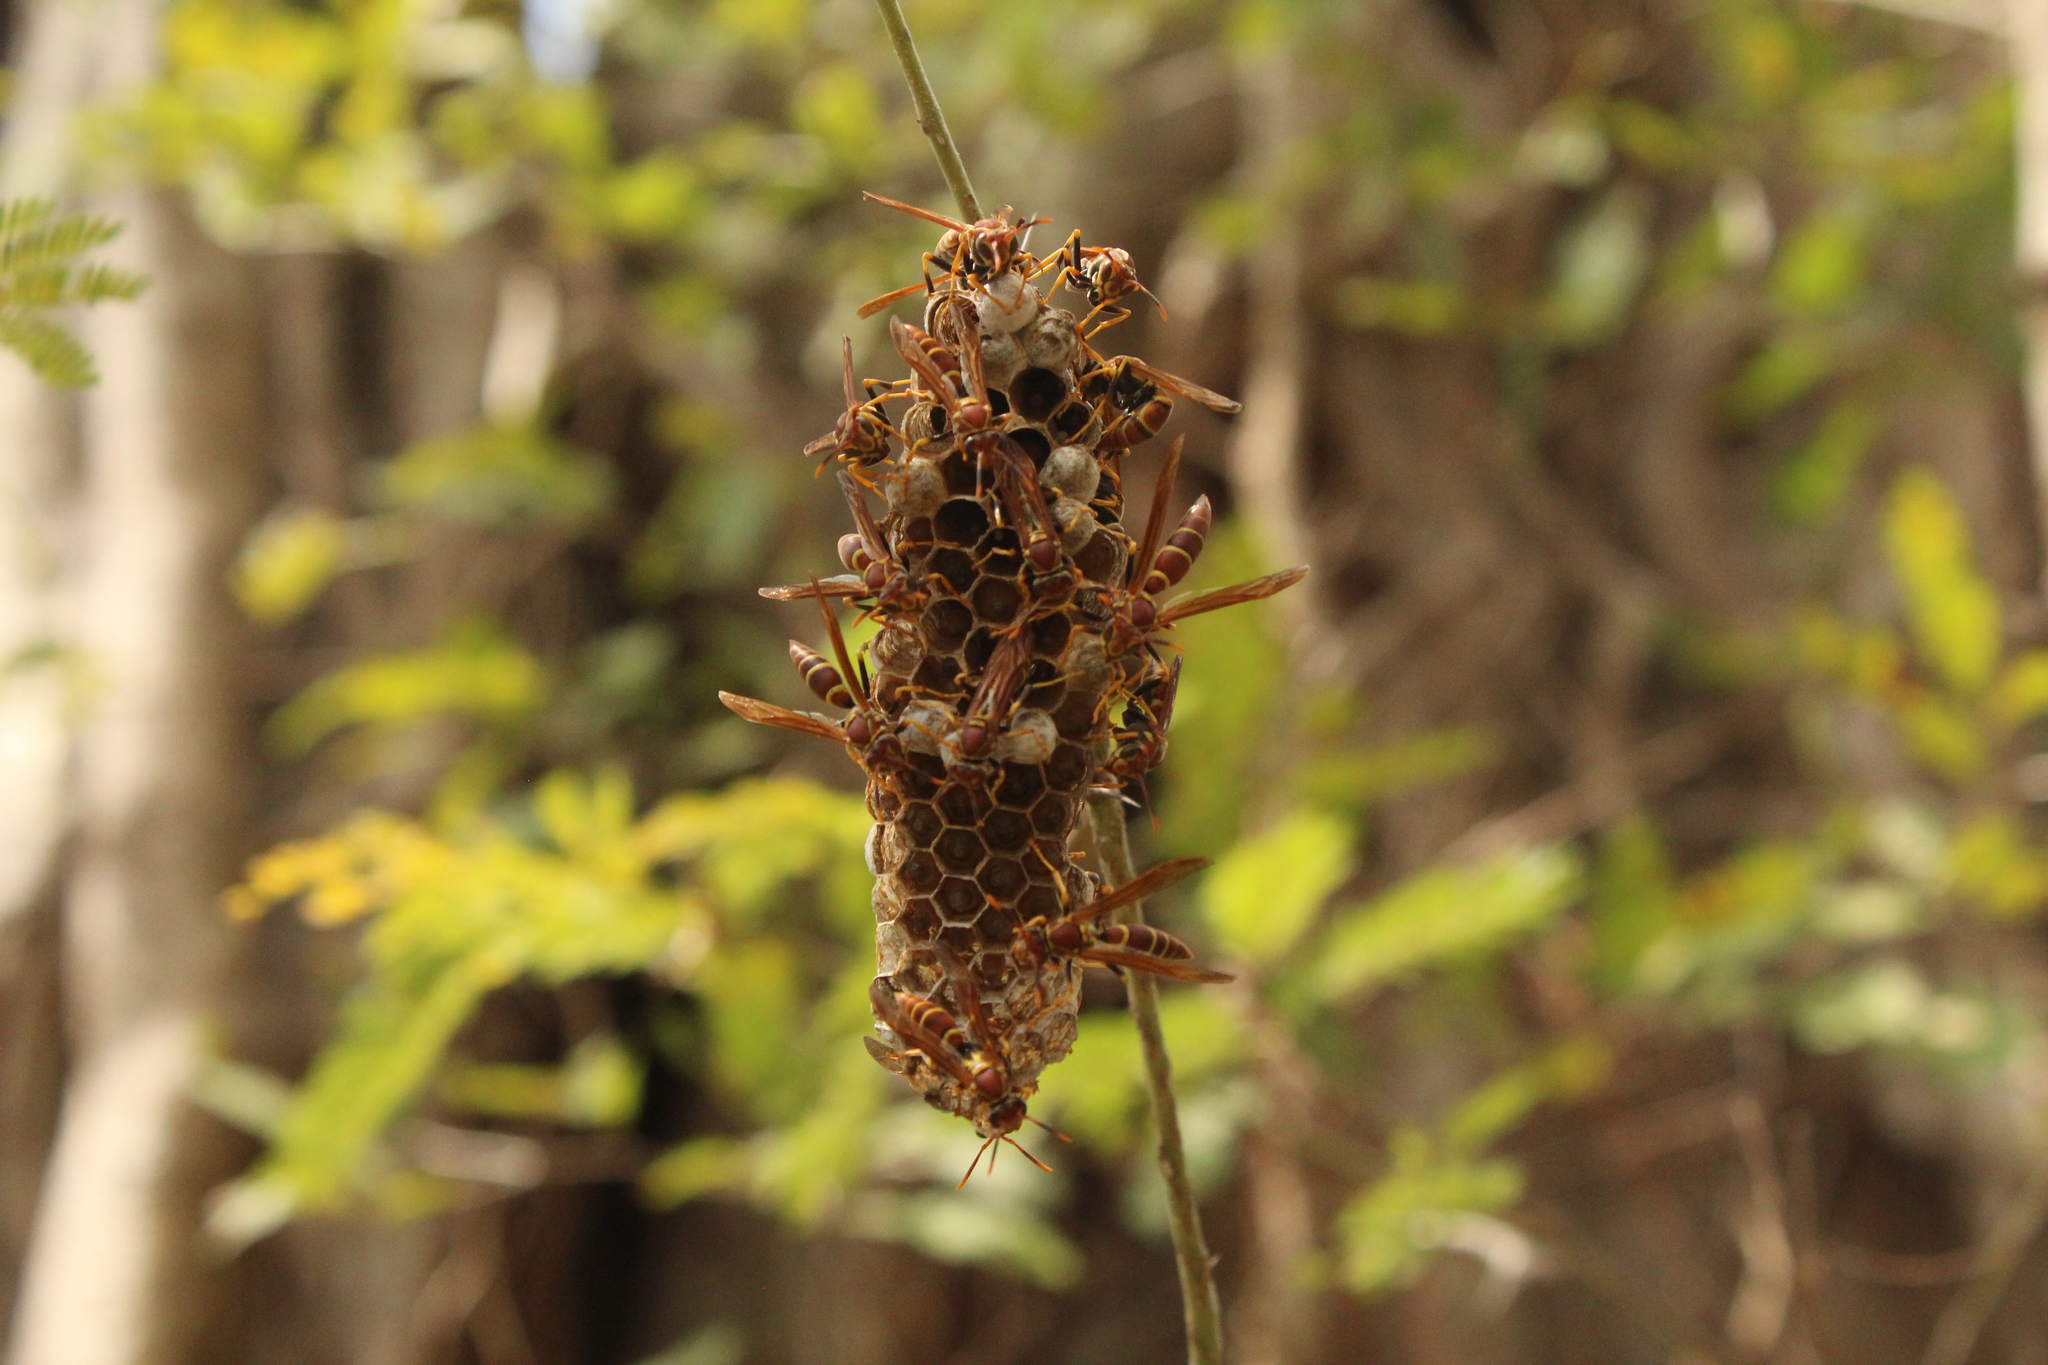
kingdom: Animalia
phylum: Arthropoda
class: Insecta
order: Hymenoptera
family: Eumenidae
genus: Polistes
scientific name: Polistes instabilis
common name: Unstable paper wasp
